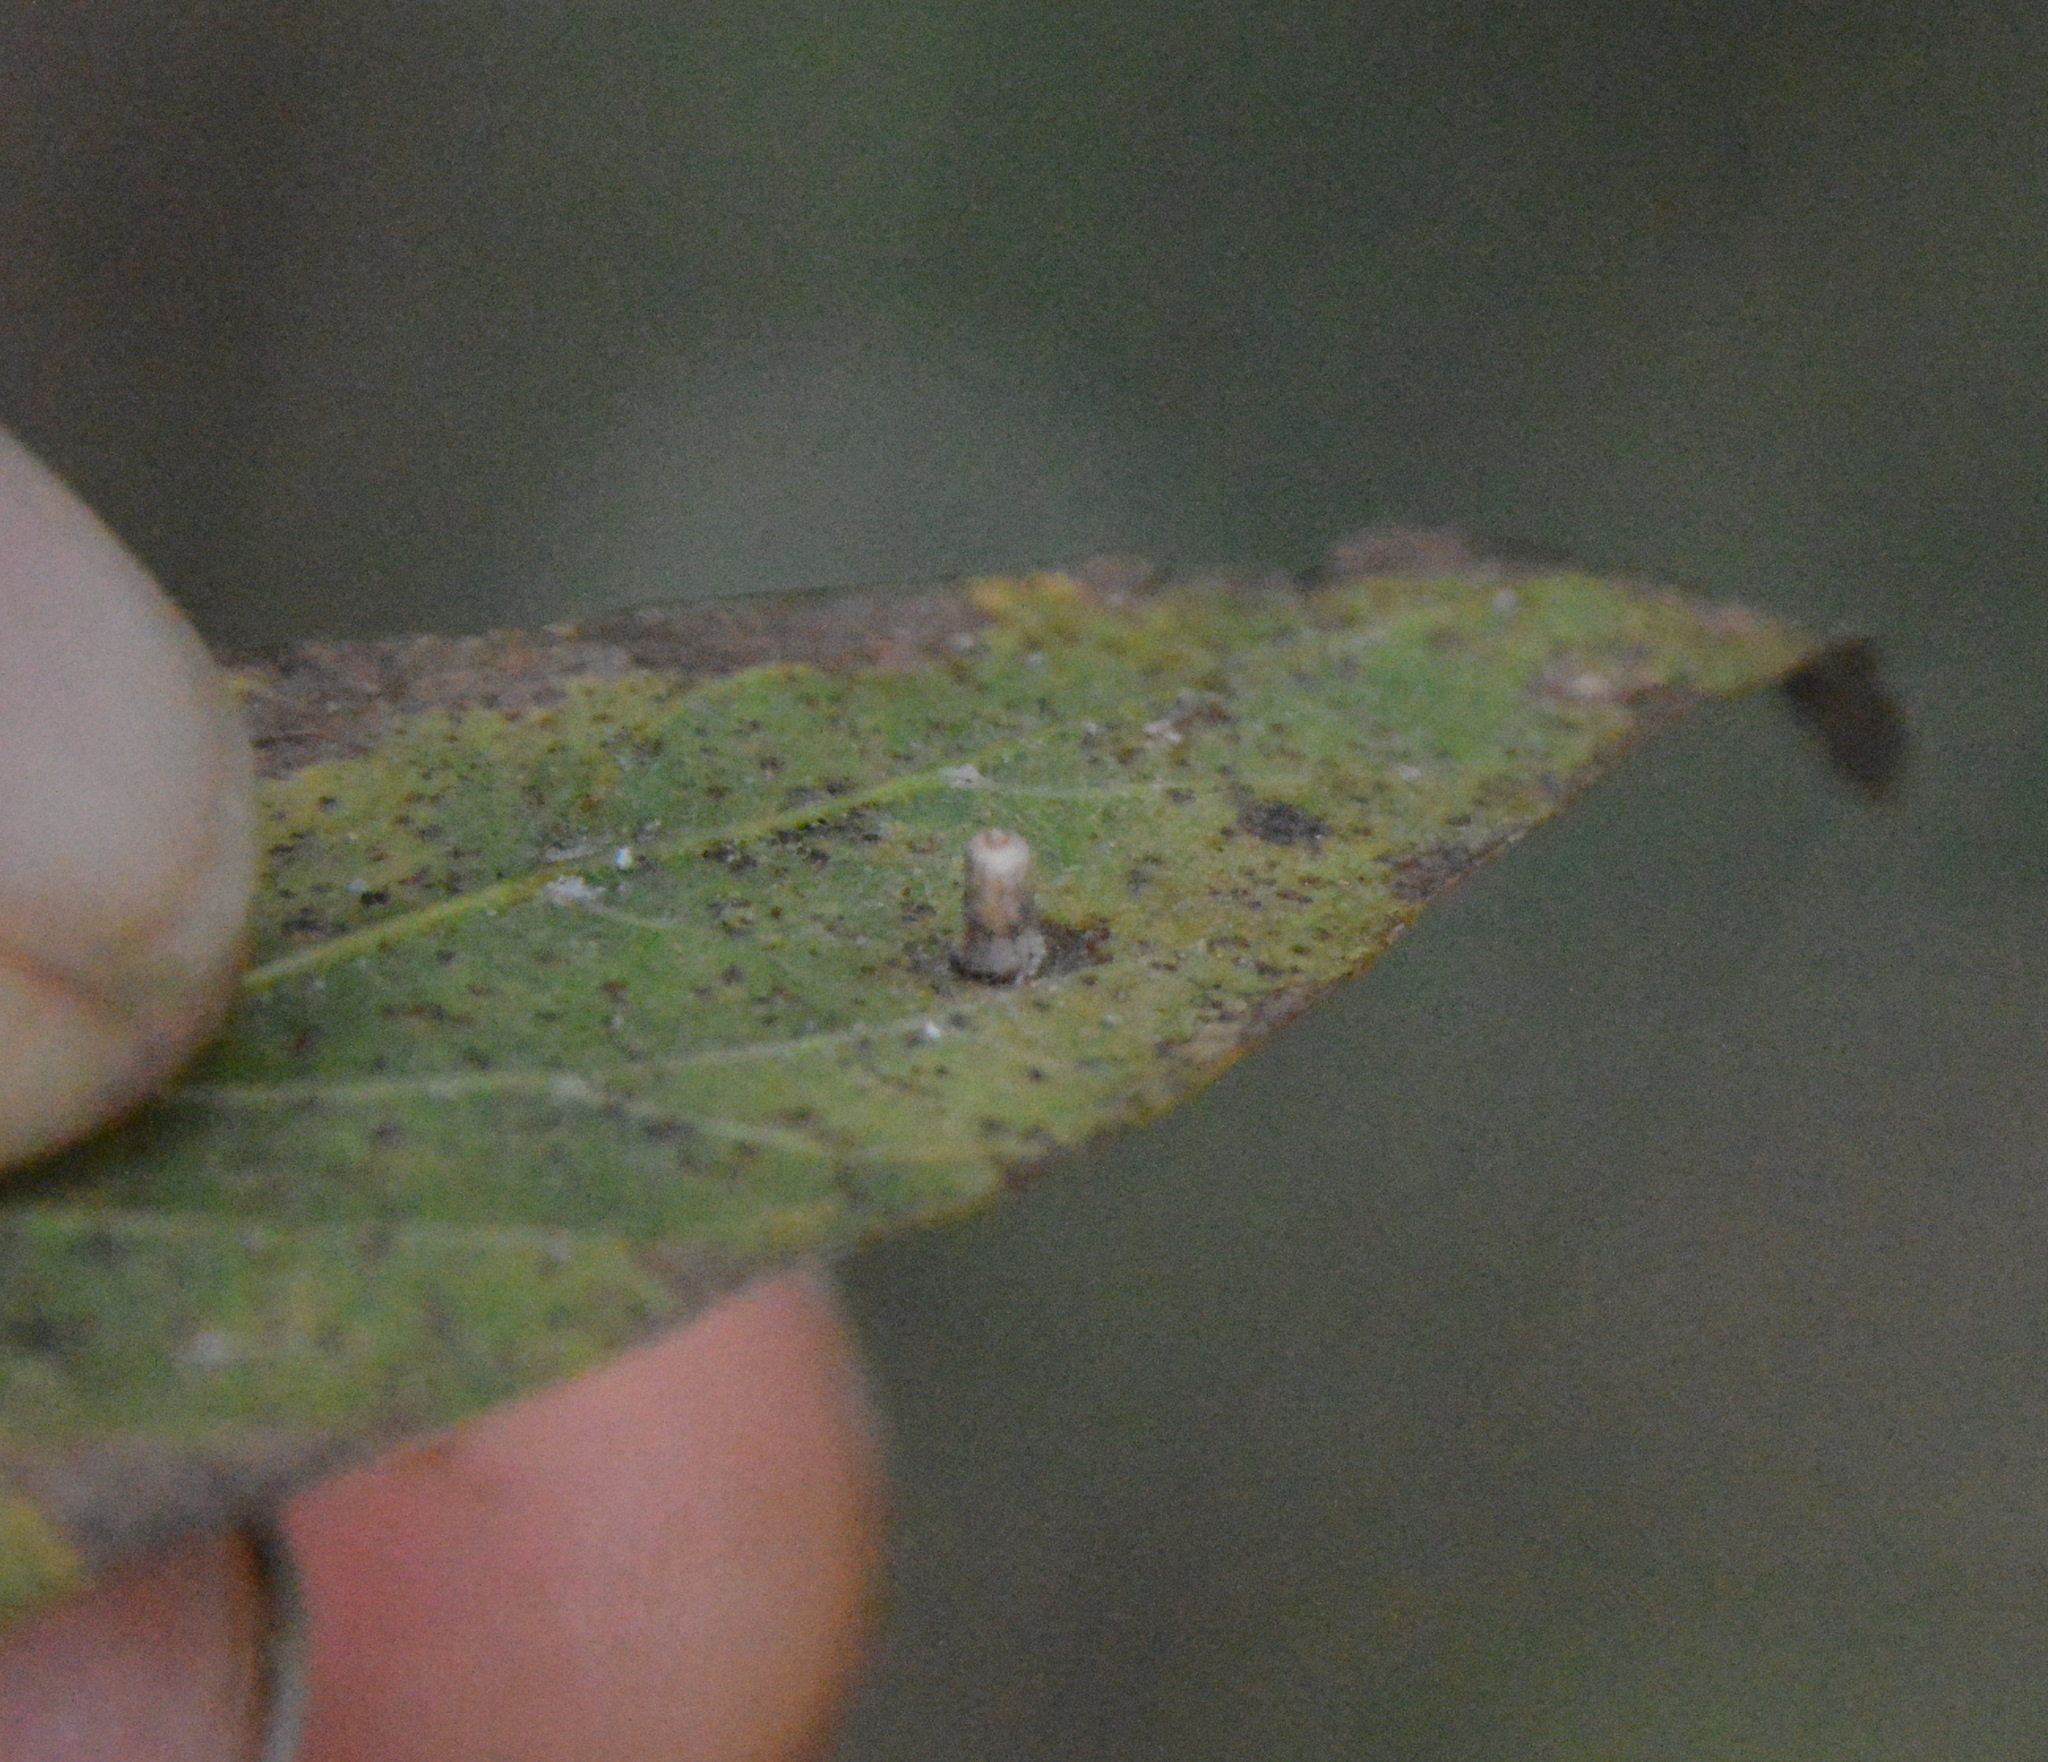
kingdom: Animalia
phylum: Arthropoda
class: Insecta
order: Diptera
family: Cecidomyiidae
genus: Celticecis
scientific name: Celticecis aciculata
